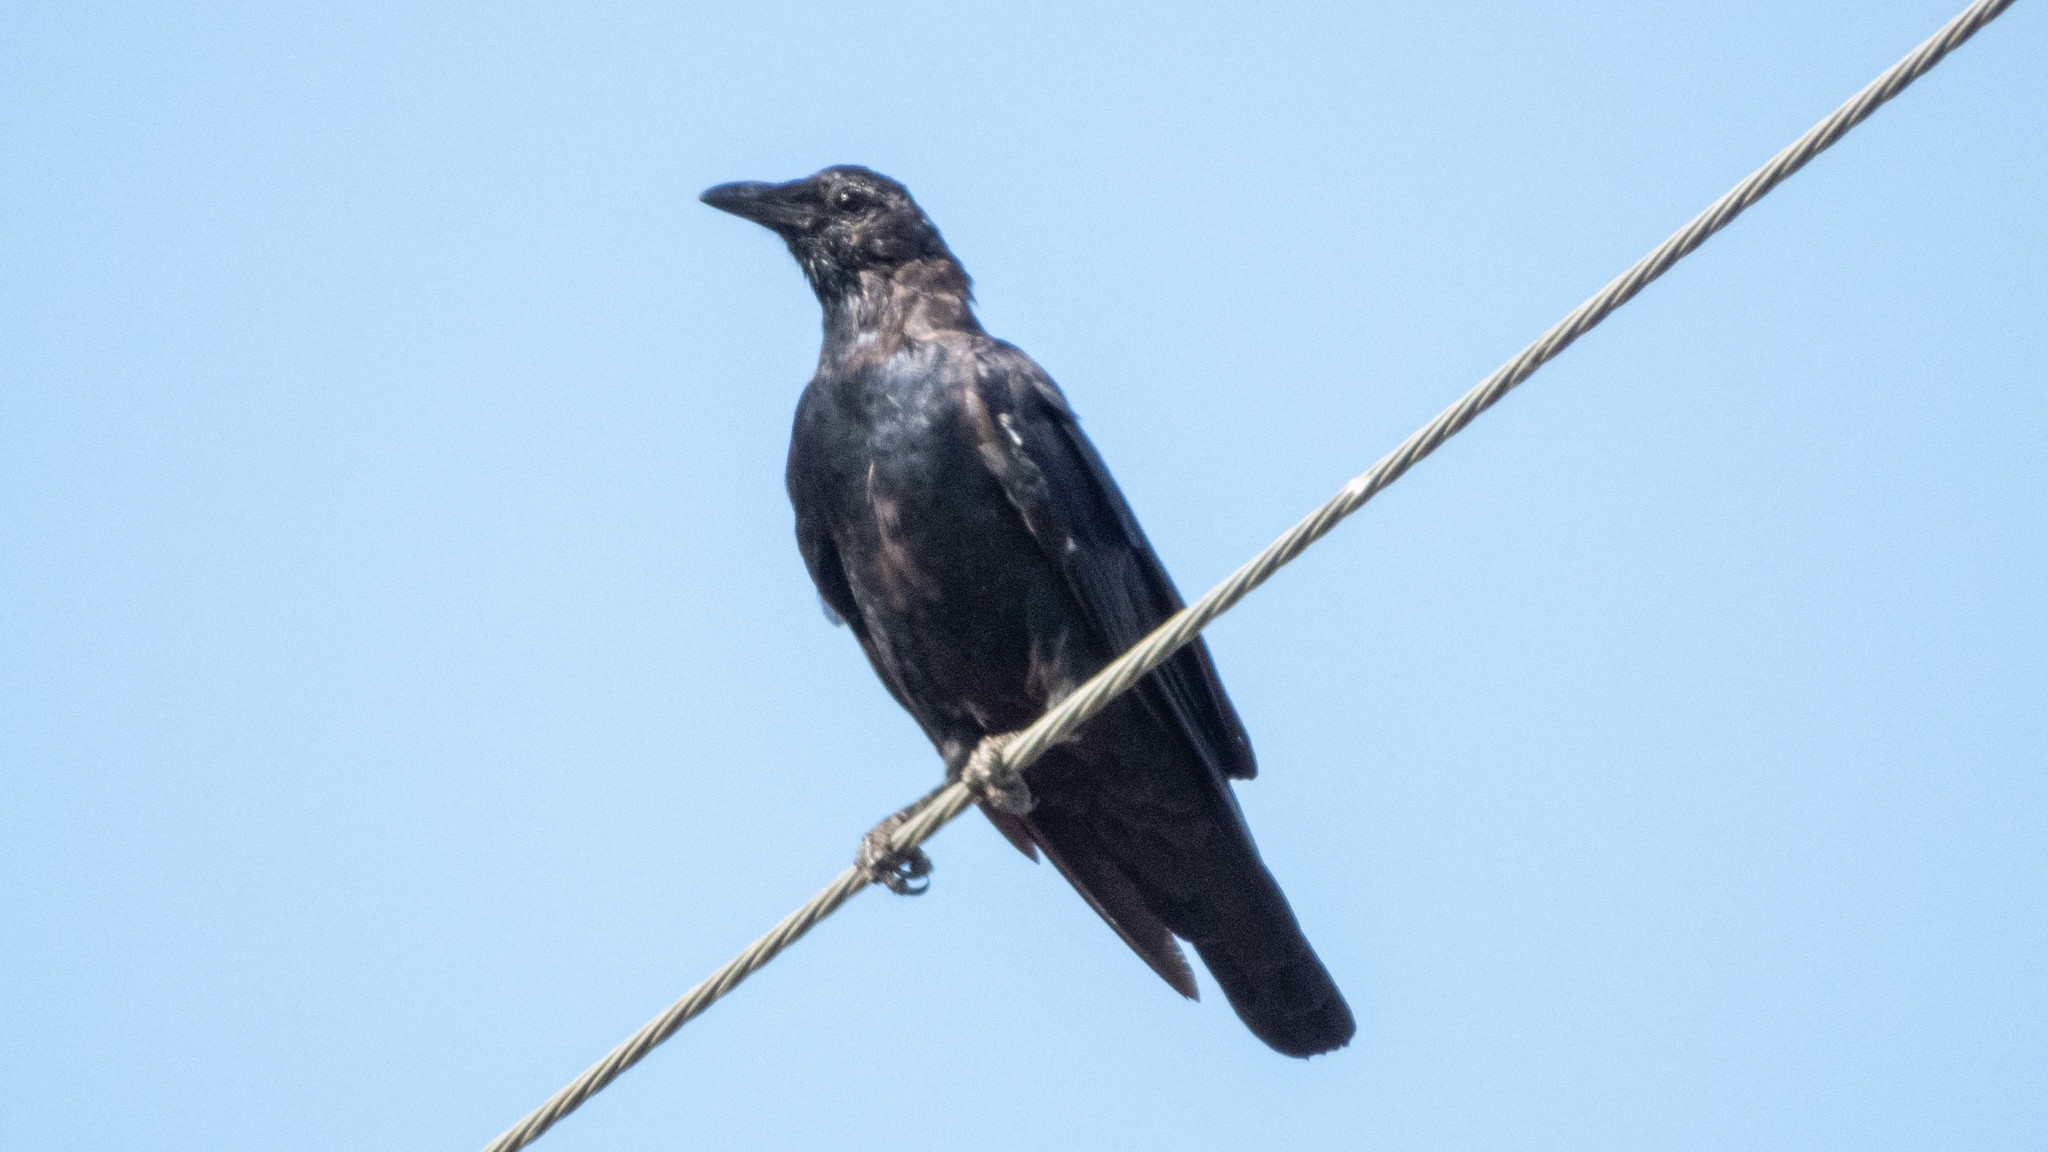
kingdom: Animalia
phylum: Chordata
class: Aves
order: Passeriformes
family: Corvidae
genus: Corvus
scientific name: Corvus brachyrhynchos
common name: American crow
